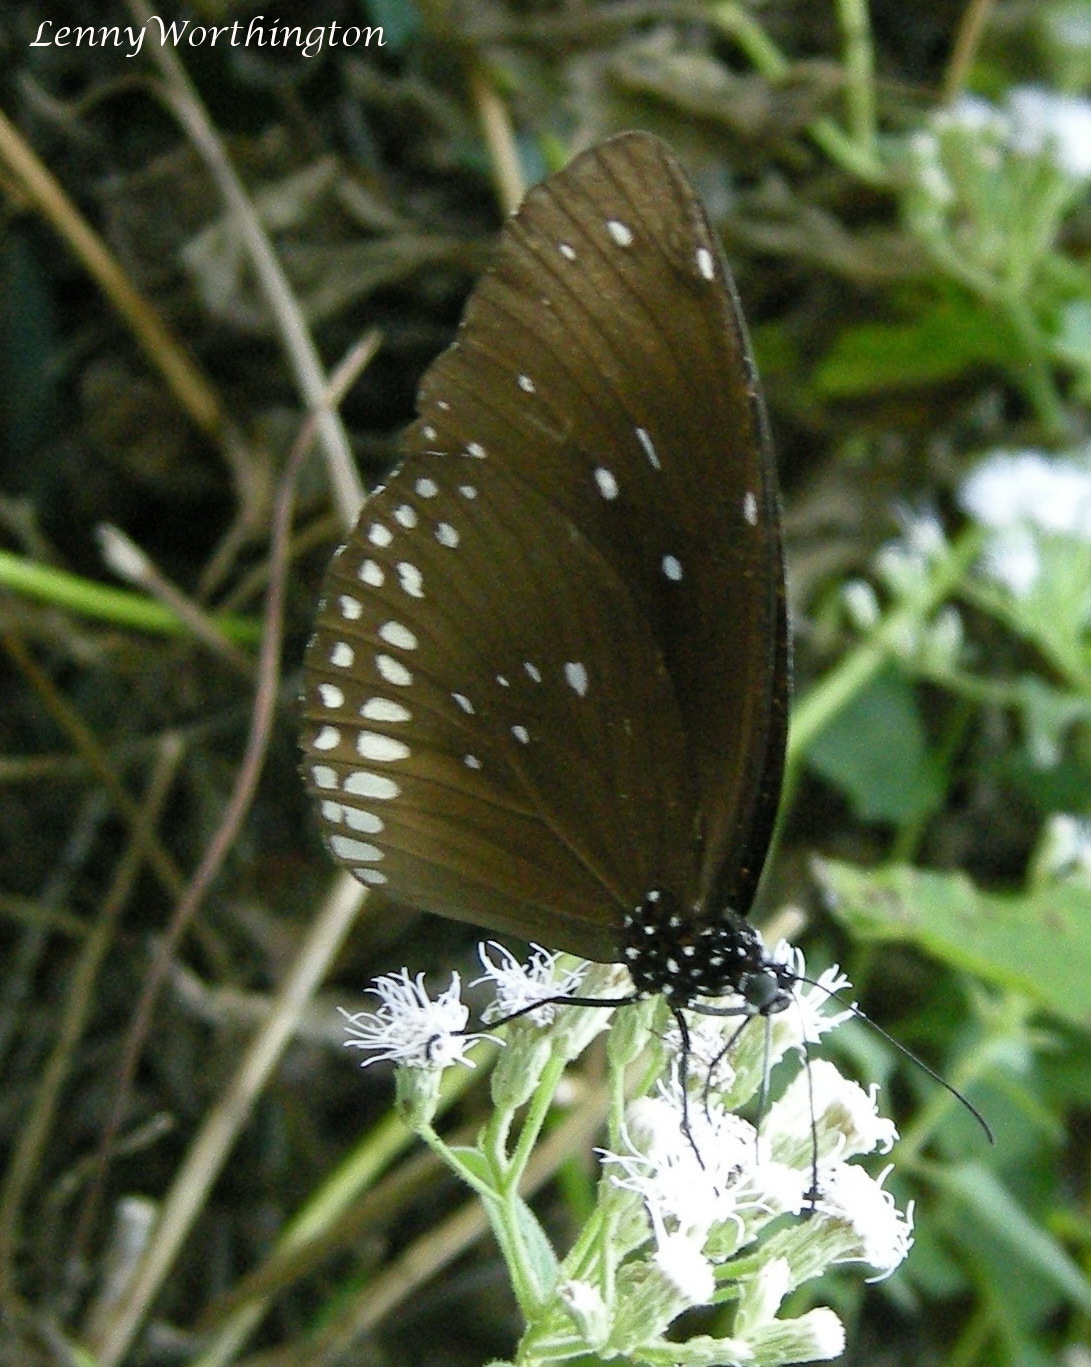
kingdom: Animalia
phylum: Arthropoda
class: Insecta
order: Lepidoptera
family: Nymphalidae
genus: Euploea
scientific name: Euploea core
